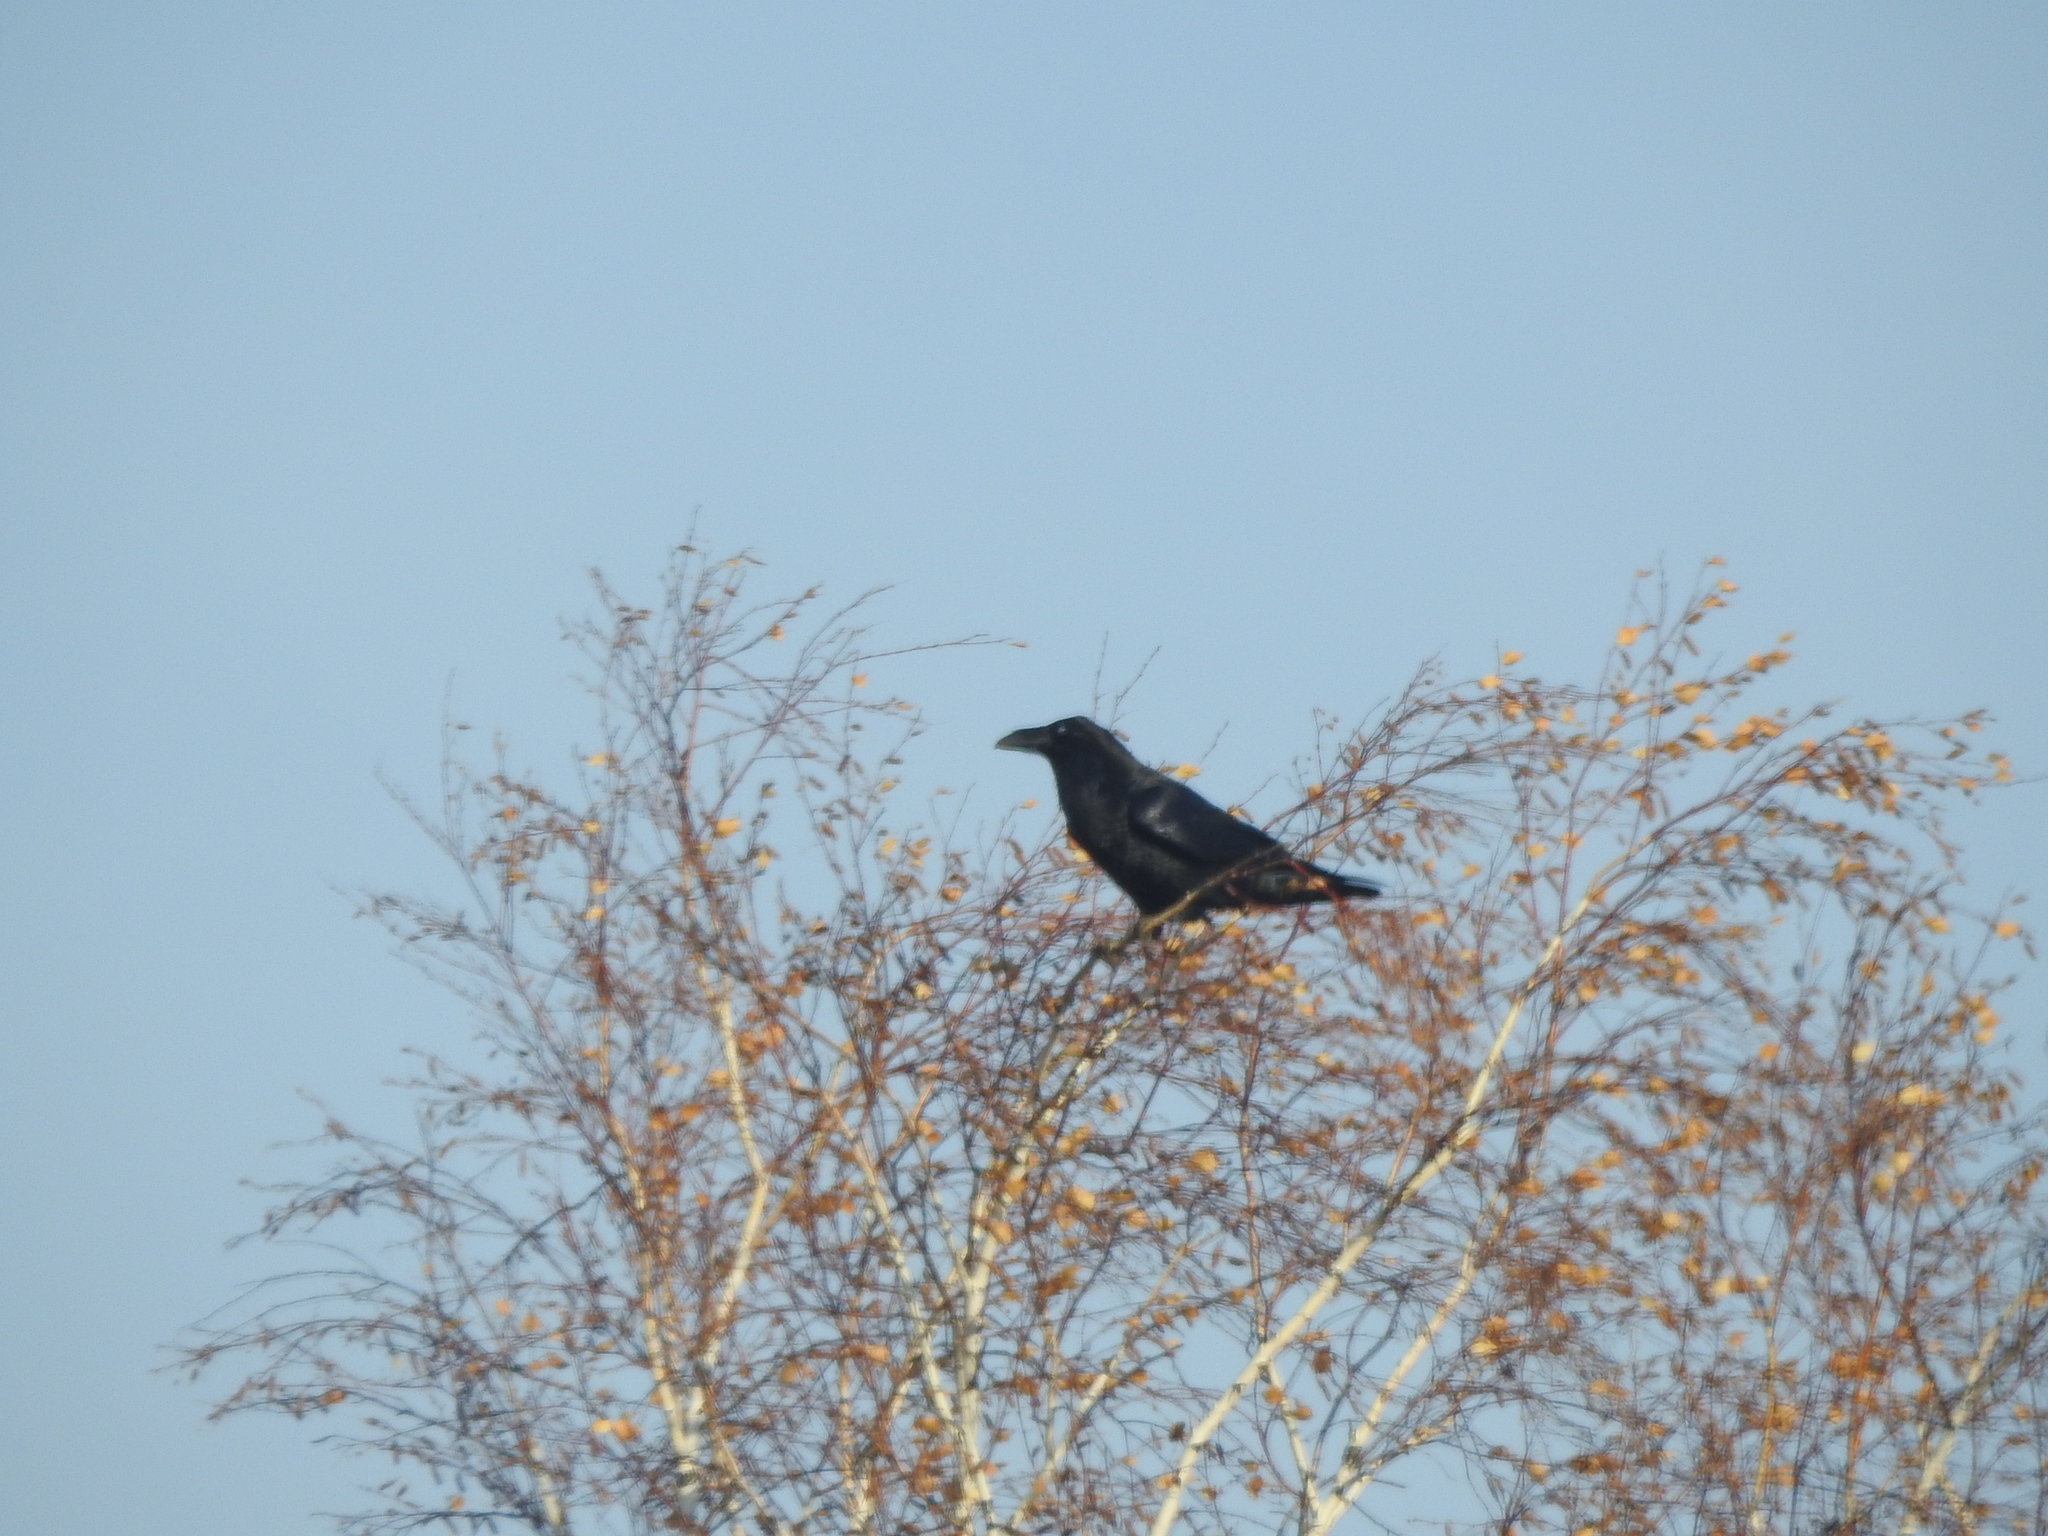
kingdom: Animalia
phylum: Chordata
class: Aves
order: Passeriformes
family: Corvidae
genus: Corvus
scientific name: Corvus corax
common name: Common raven
